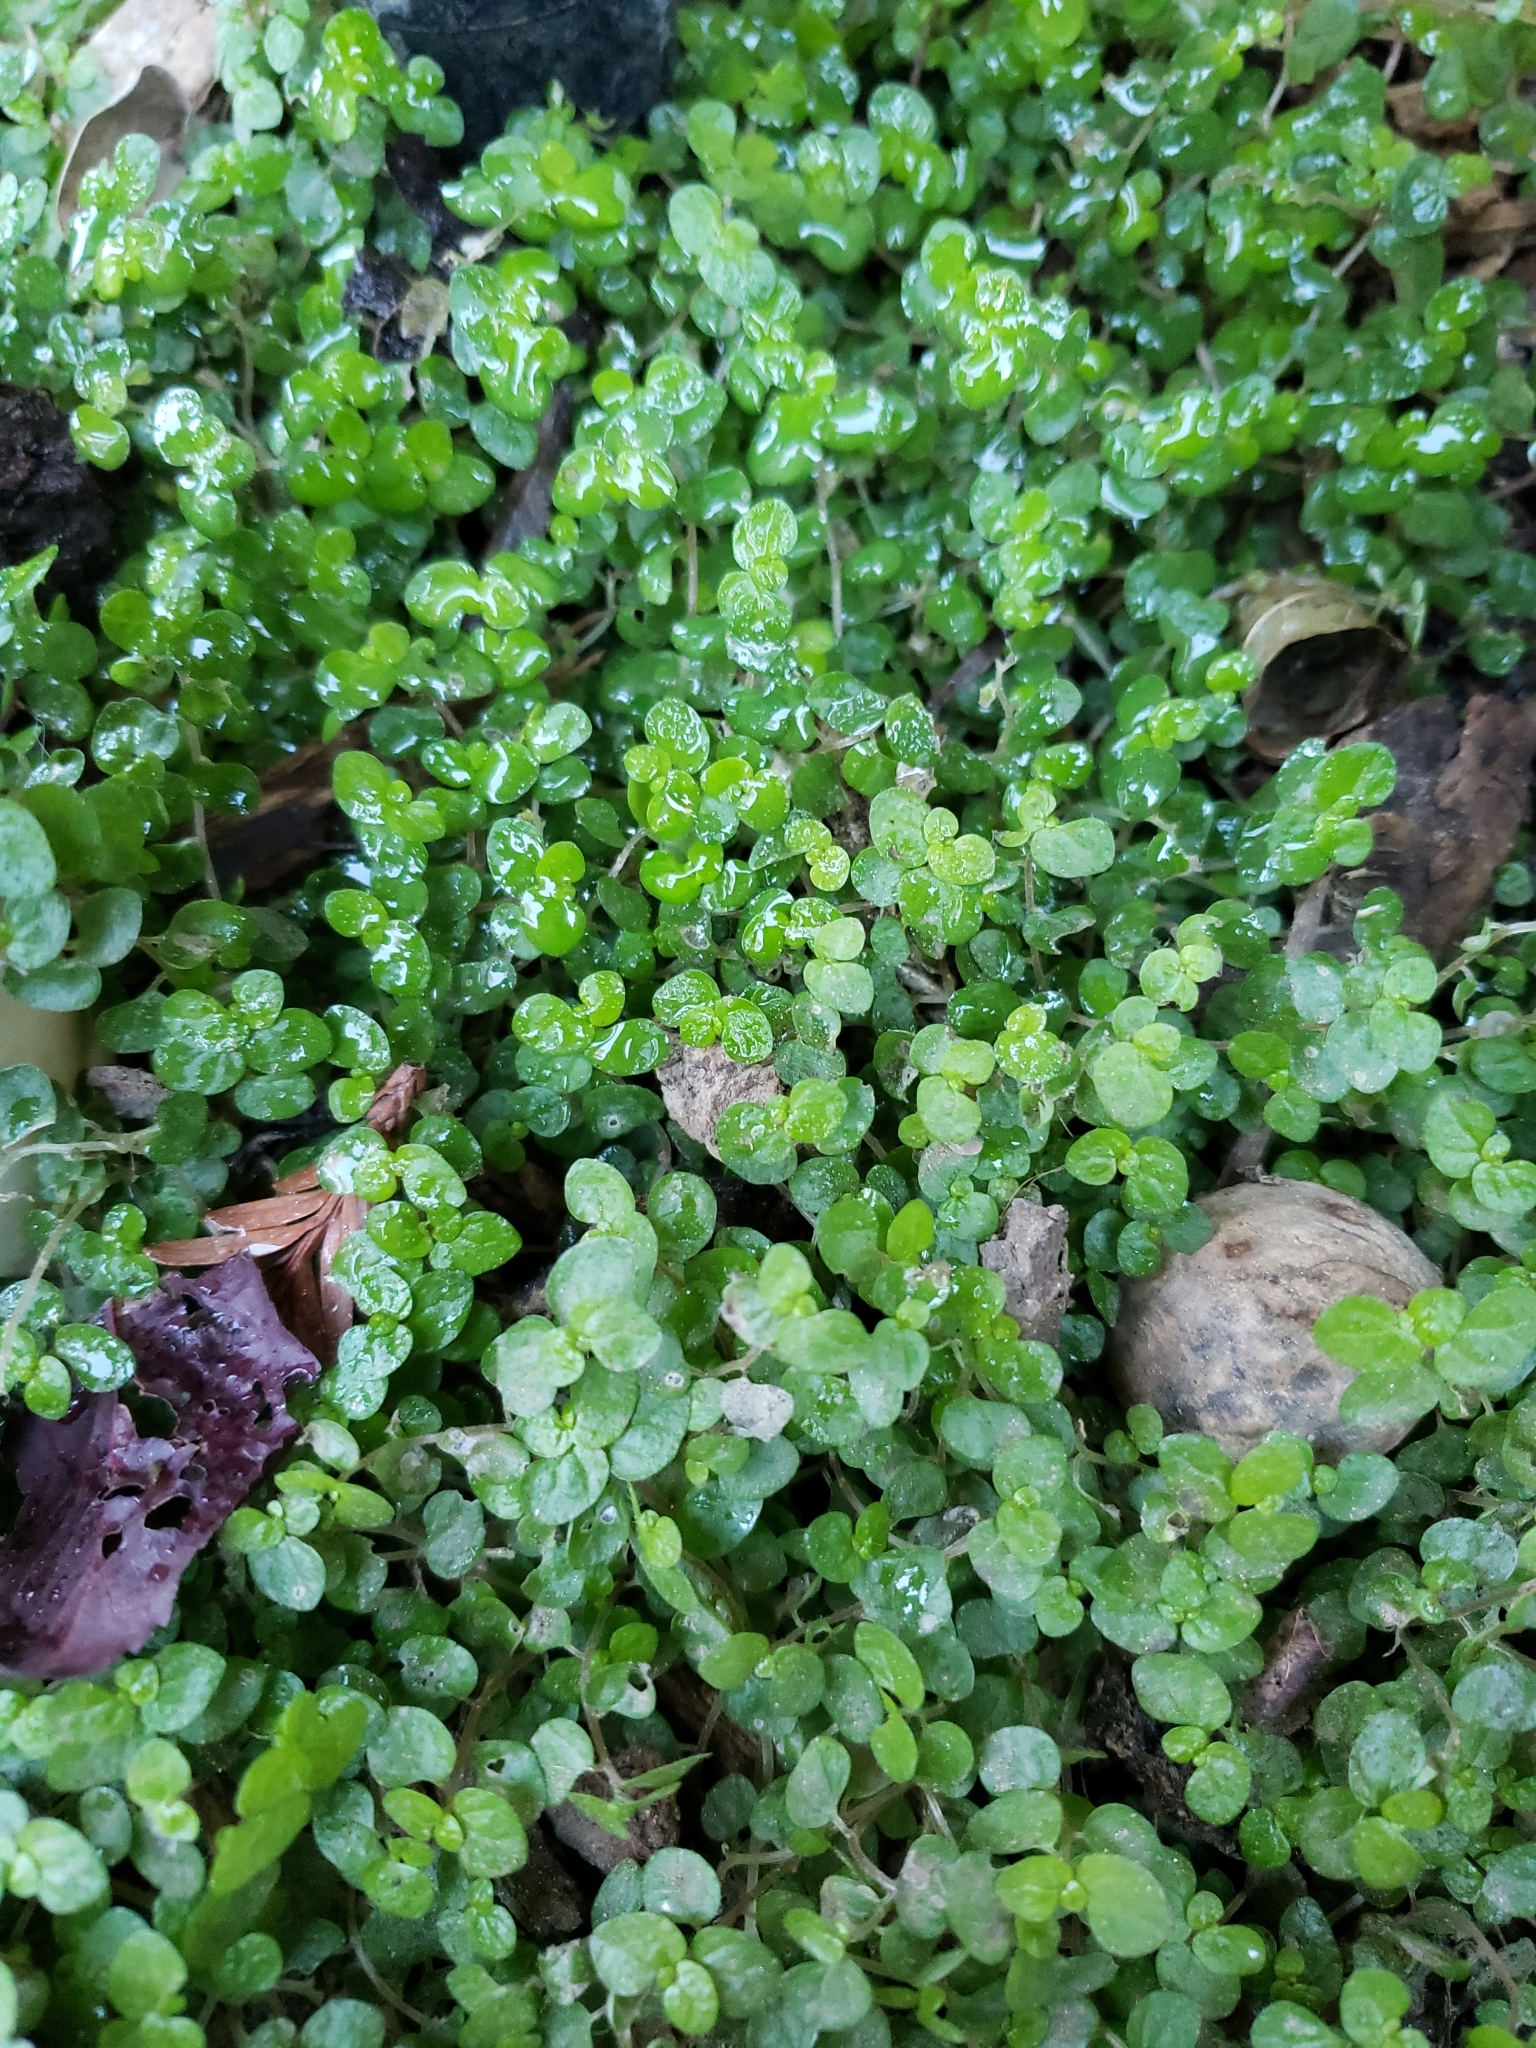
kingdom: Plantae
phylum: Tracheophyta
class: Magnoliopsida
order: Rosales
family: Urticaceae
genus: Soleirolia
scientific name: Soleirolia soleirolii
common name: Mind-your-own-business
